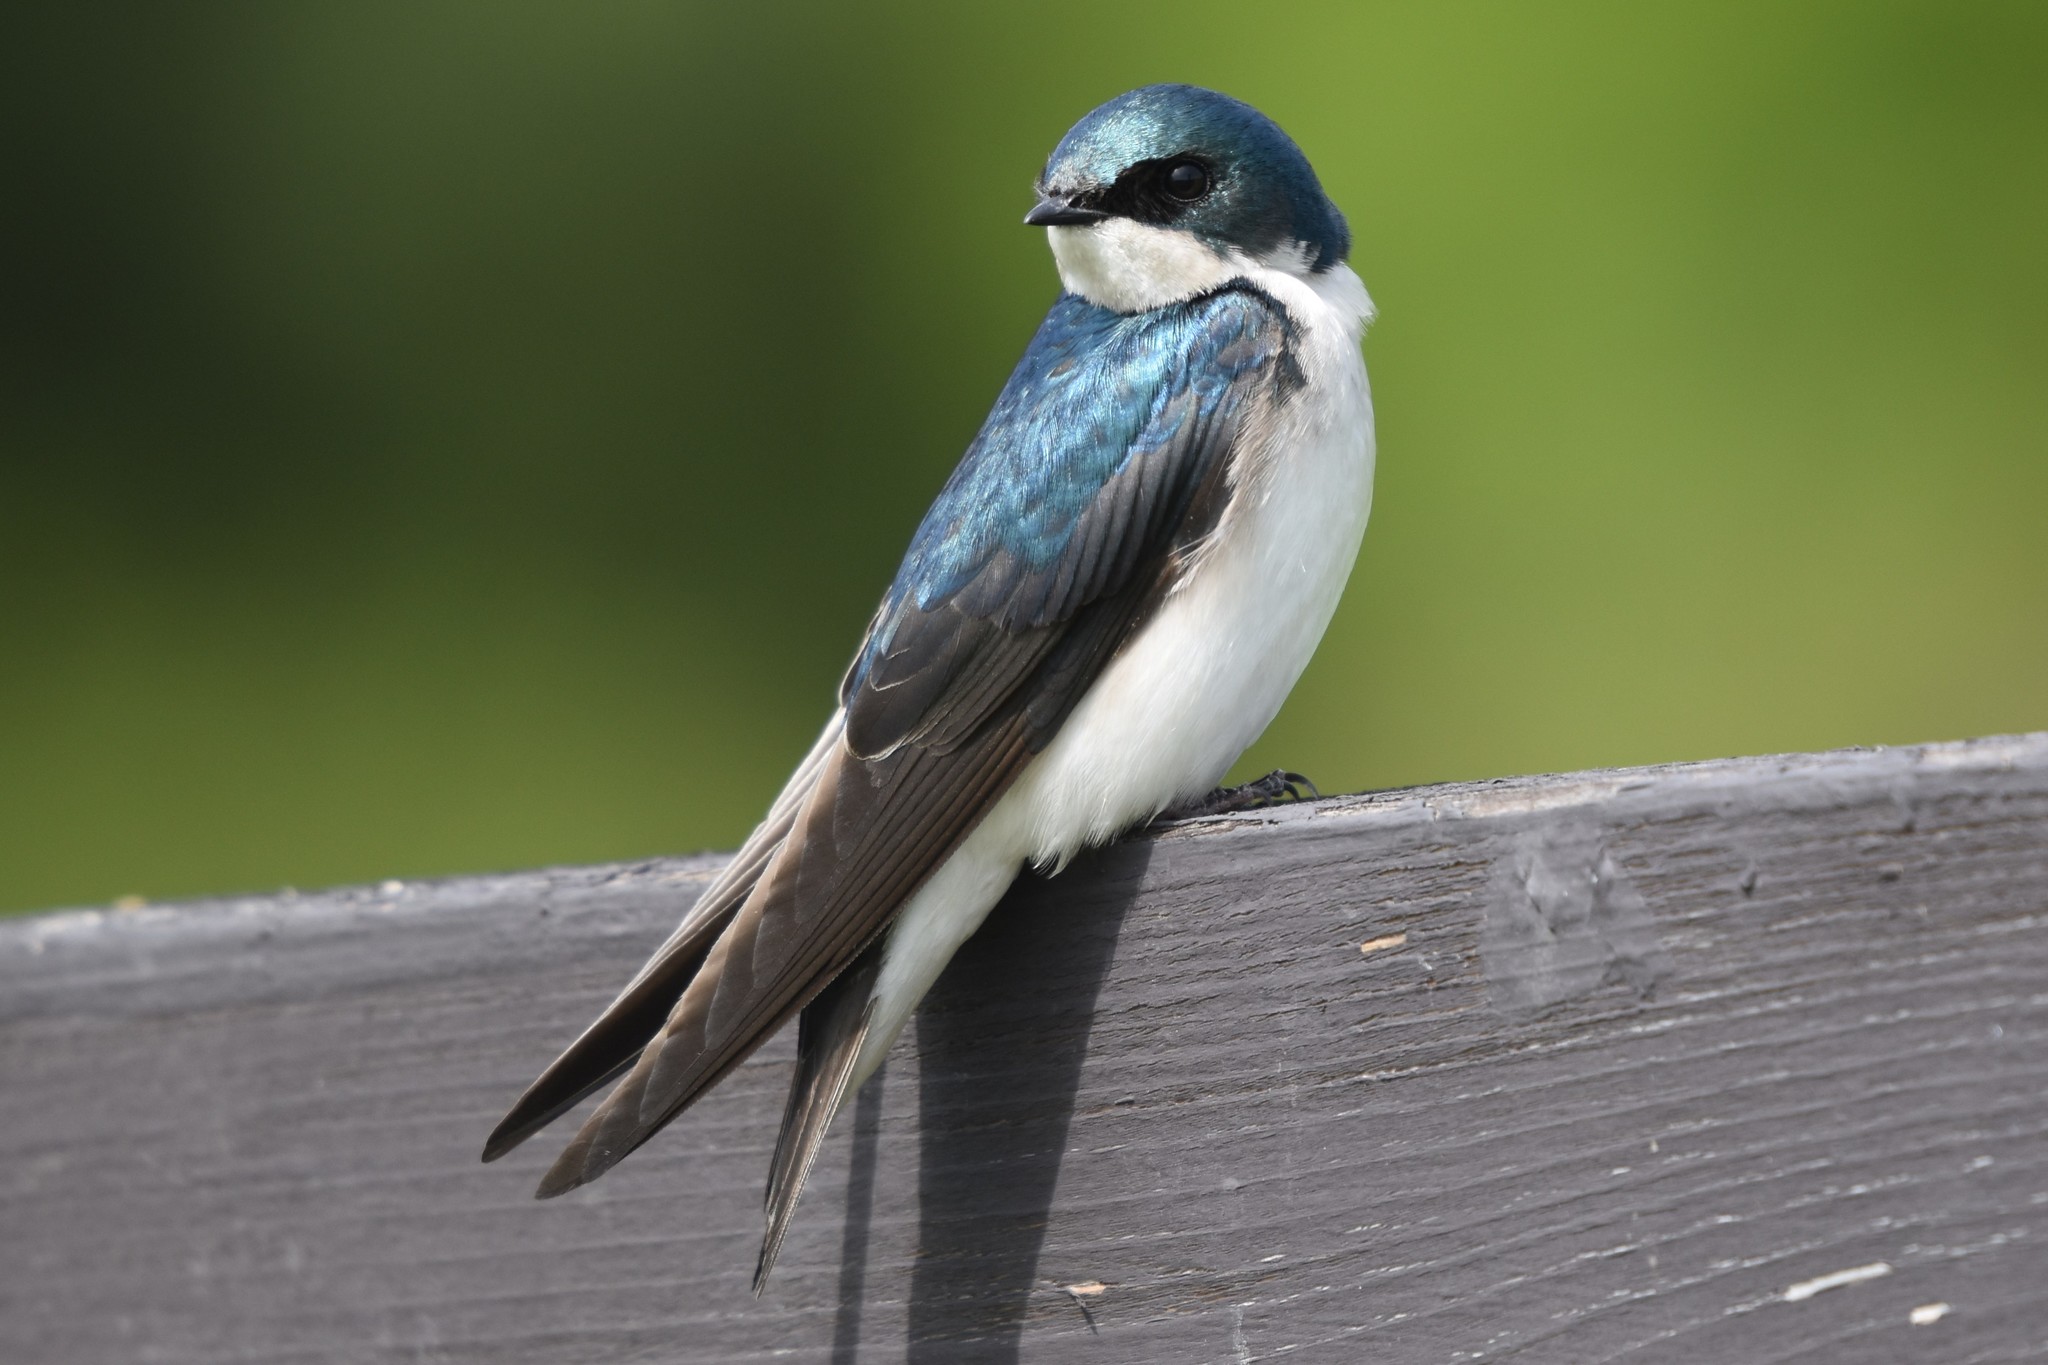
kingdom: Animalia
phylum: Chordata
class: Aves
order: Passeriformes
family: Hirundinidae
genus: Tachycineta
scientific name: Tachycineta bicolor
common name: Tree swallow
